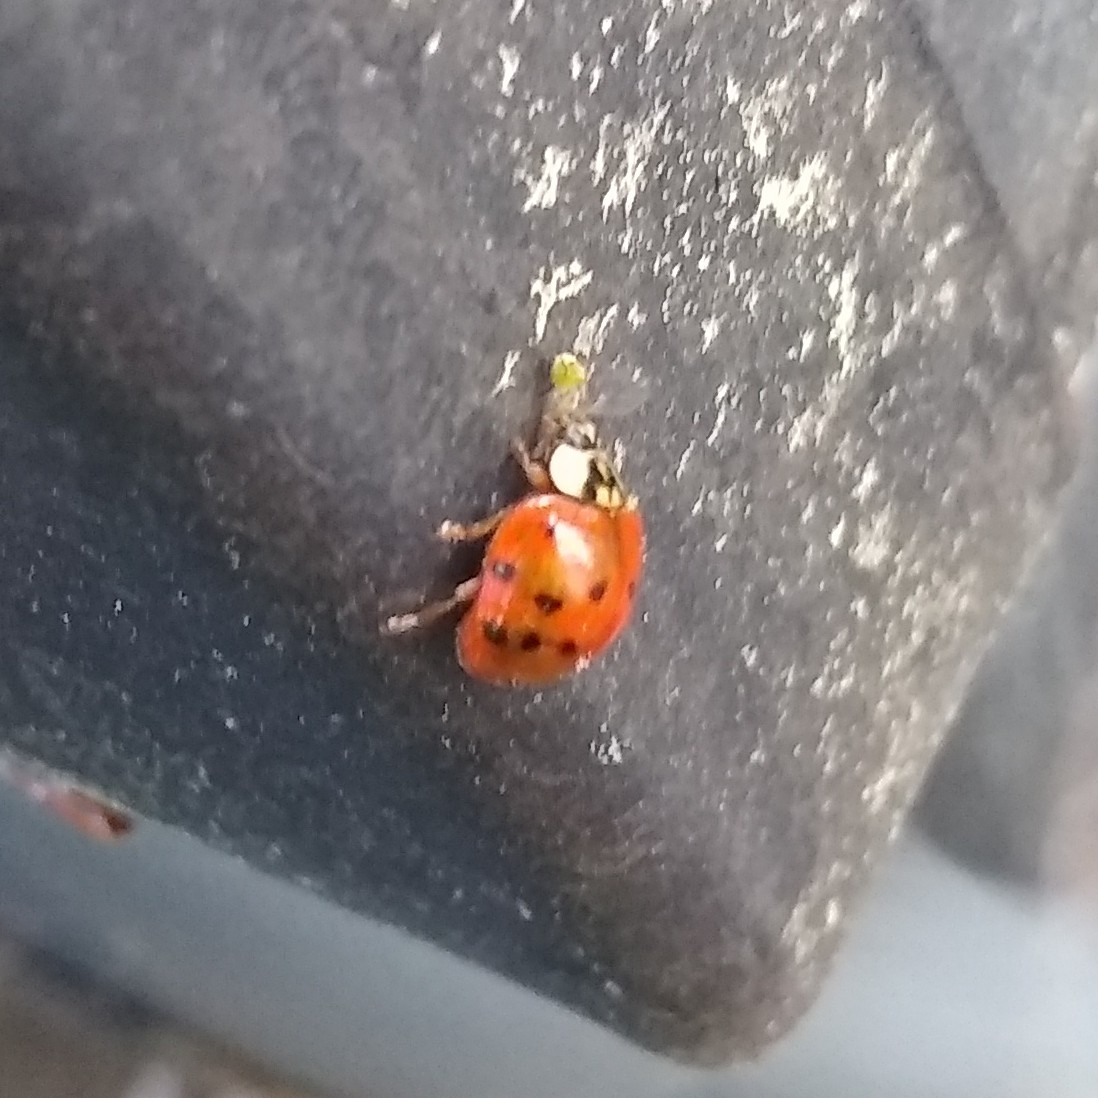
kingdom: Animalia
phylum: Arthropoda
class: Insecta
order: Coleoptera
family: Coccinellidae
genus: Harmonia
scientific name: Harmonia axyridis
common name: Harlequin ladybird
